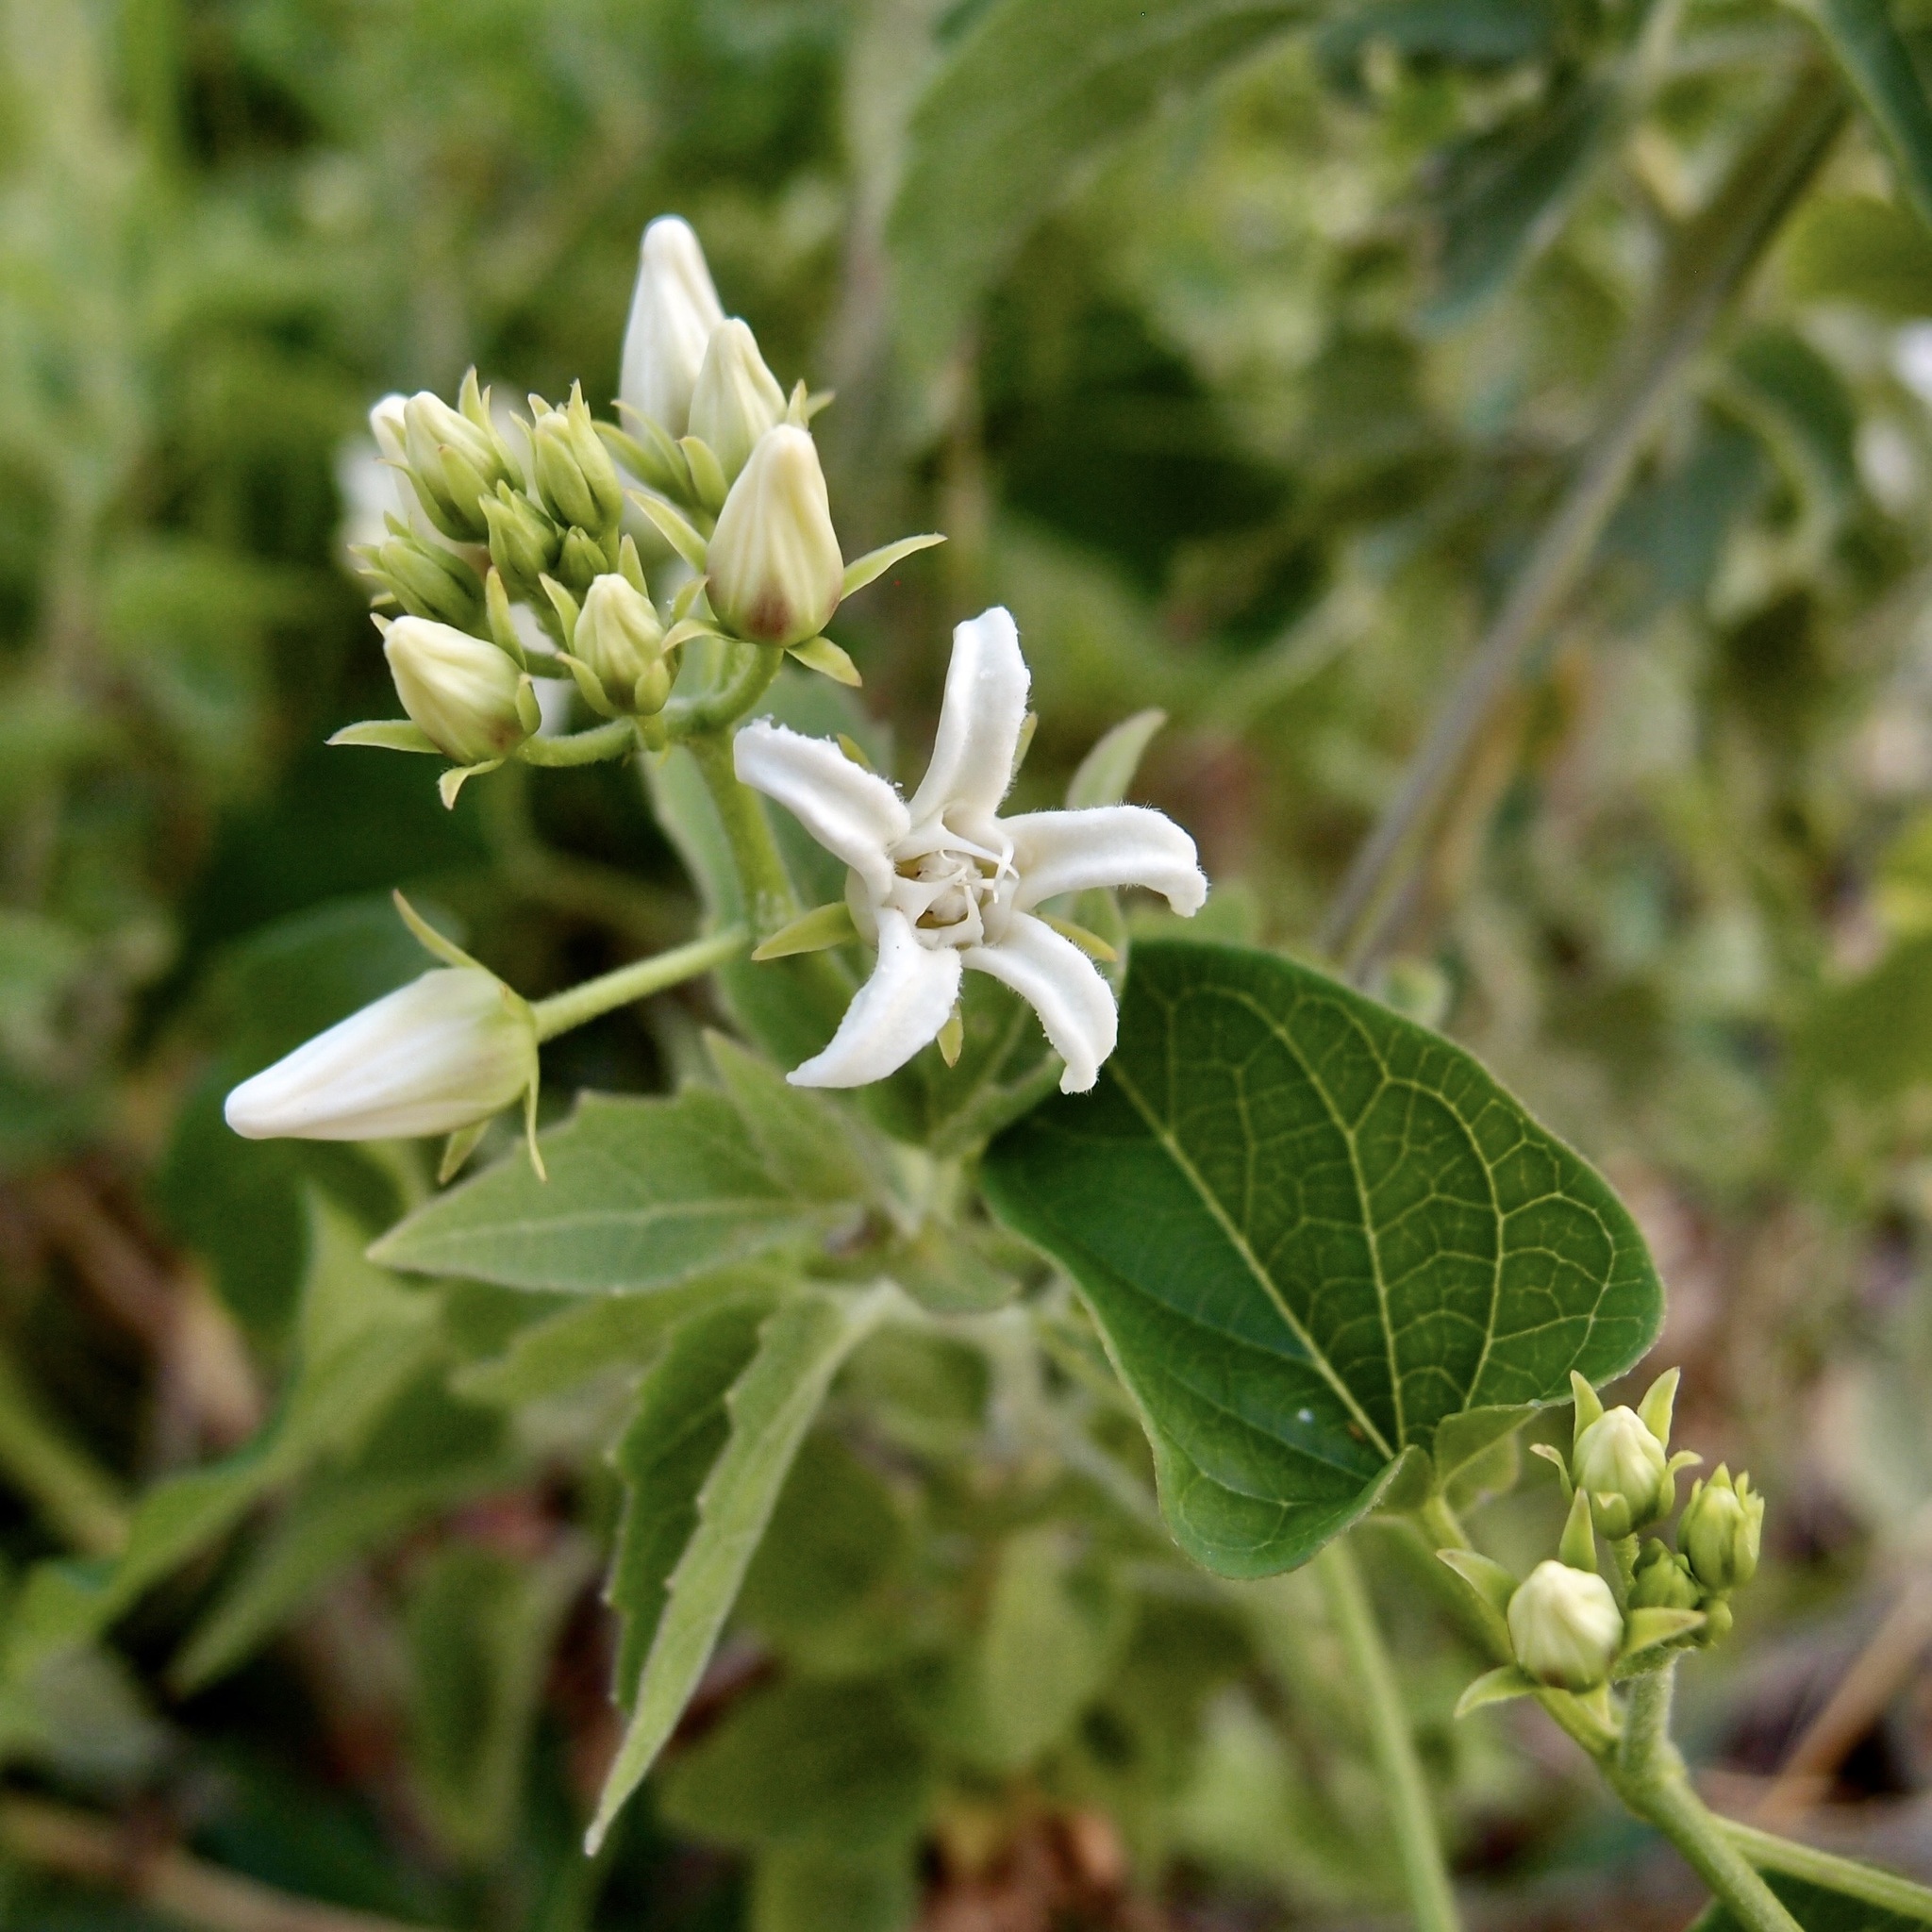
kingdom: Plantae
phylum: Tracheophyta
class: Magnoliopsida
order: Gentianales
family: Apocynaceae
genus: Cynanchum
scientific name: Cynanchum ligulatum
